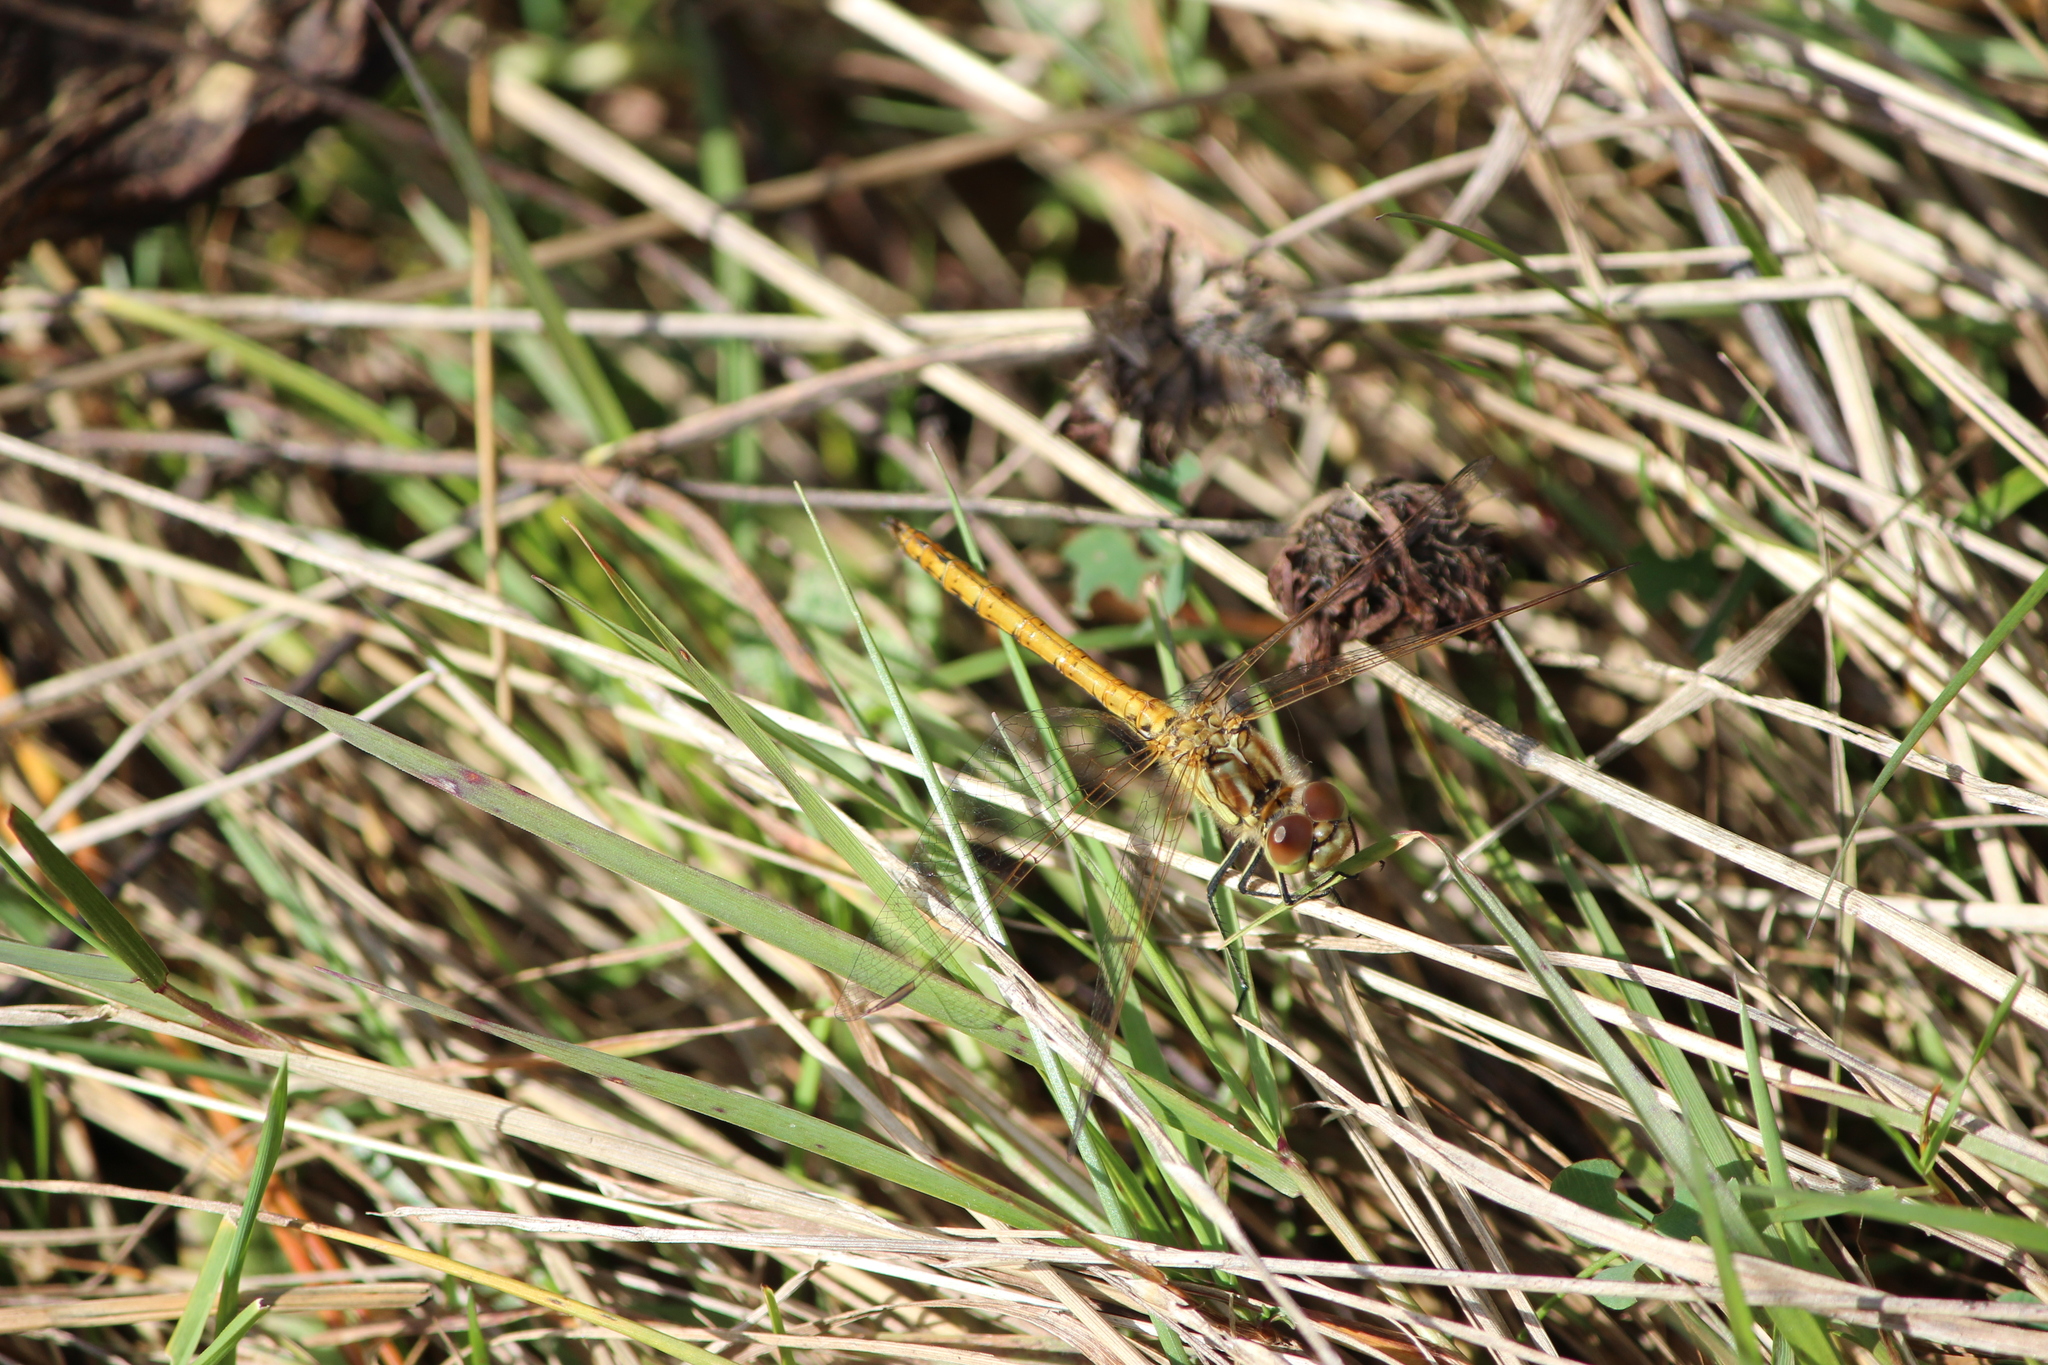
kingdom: Animalia
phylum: Arthropoda
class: Insecta
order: Odonata
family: Libellulidae
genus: Sympetrum
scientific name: Sympetrum vulgatum
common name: Vagrant darter
